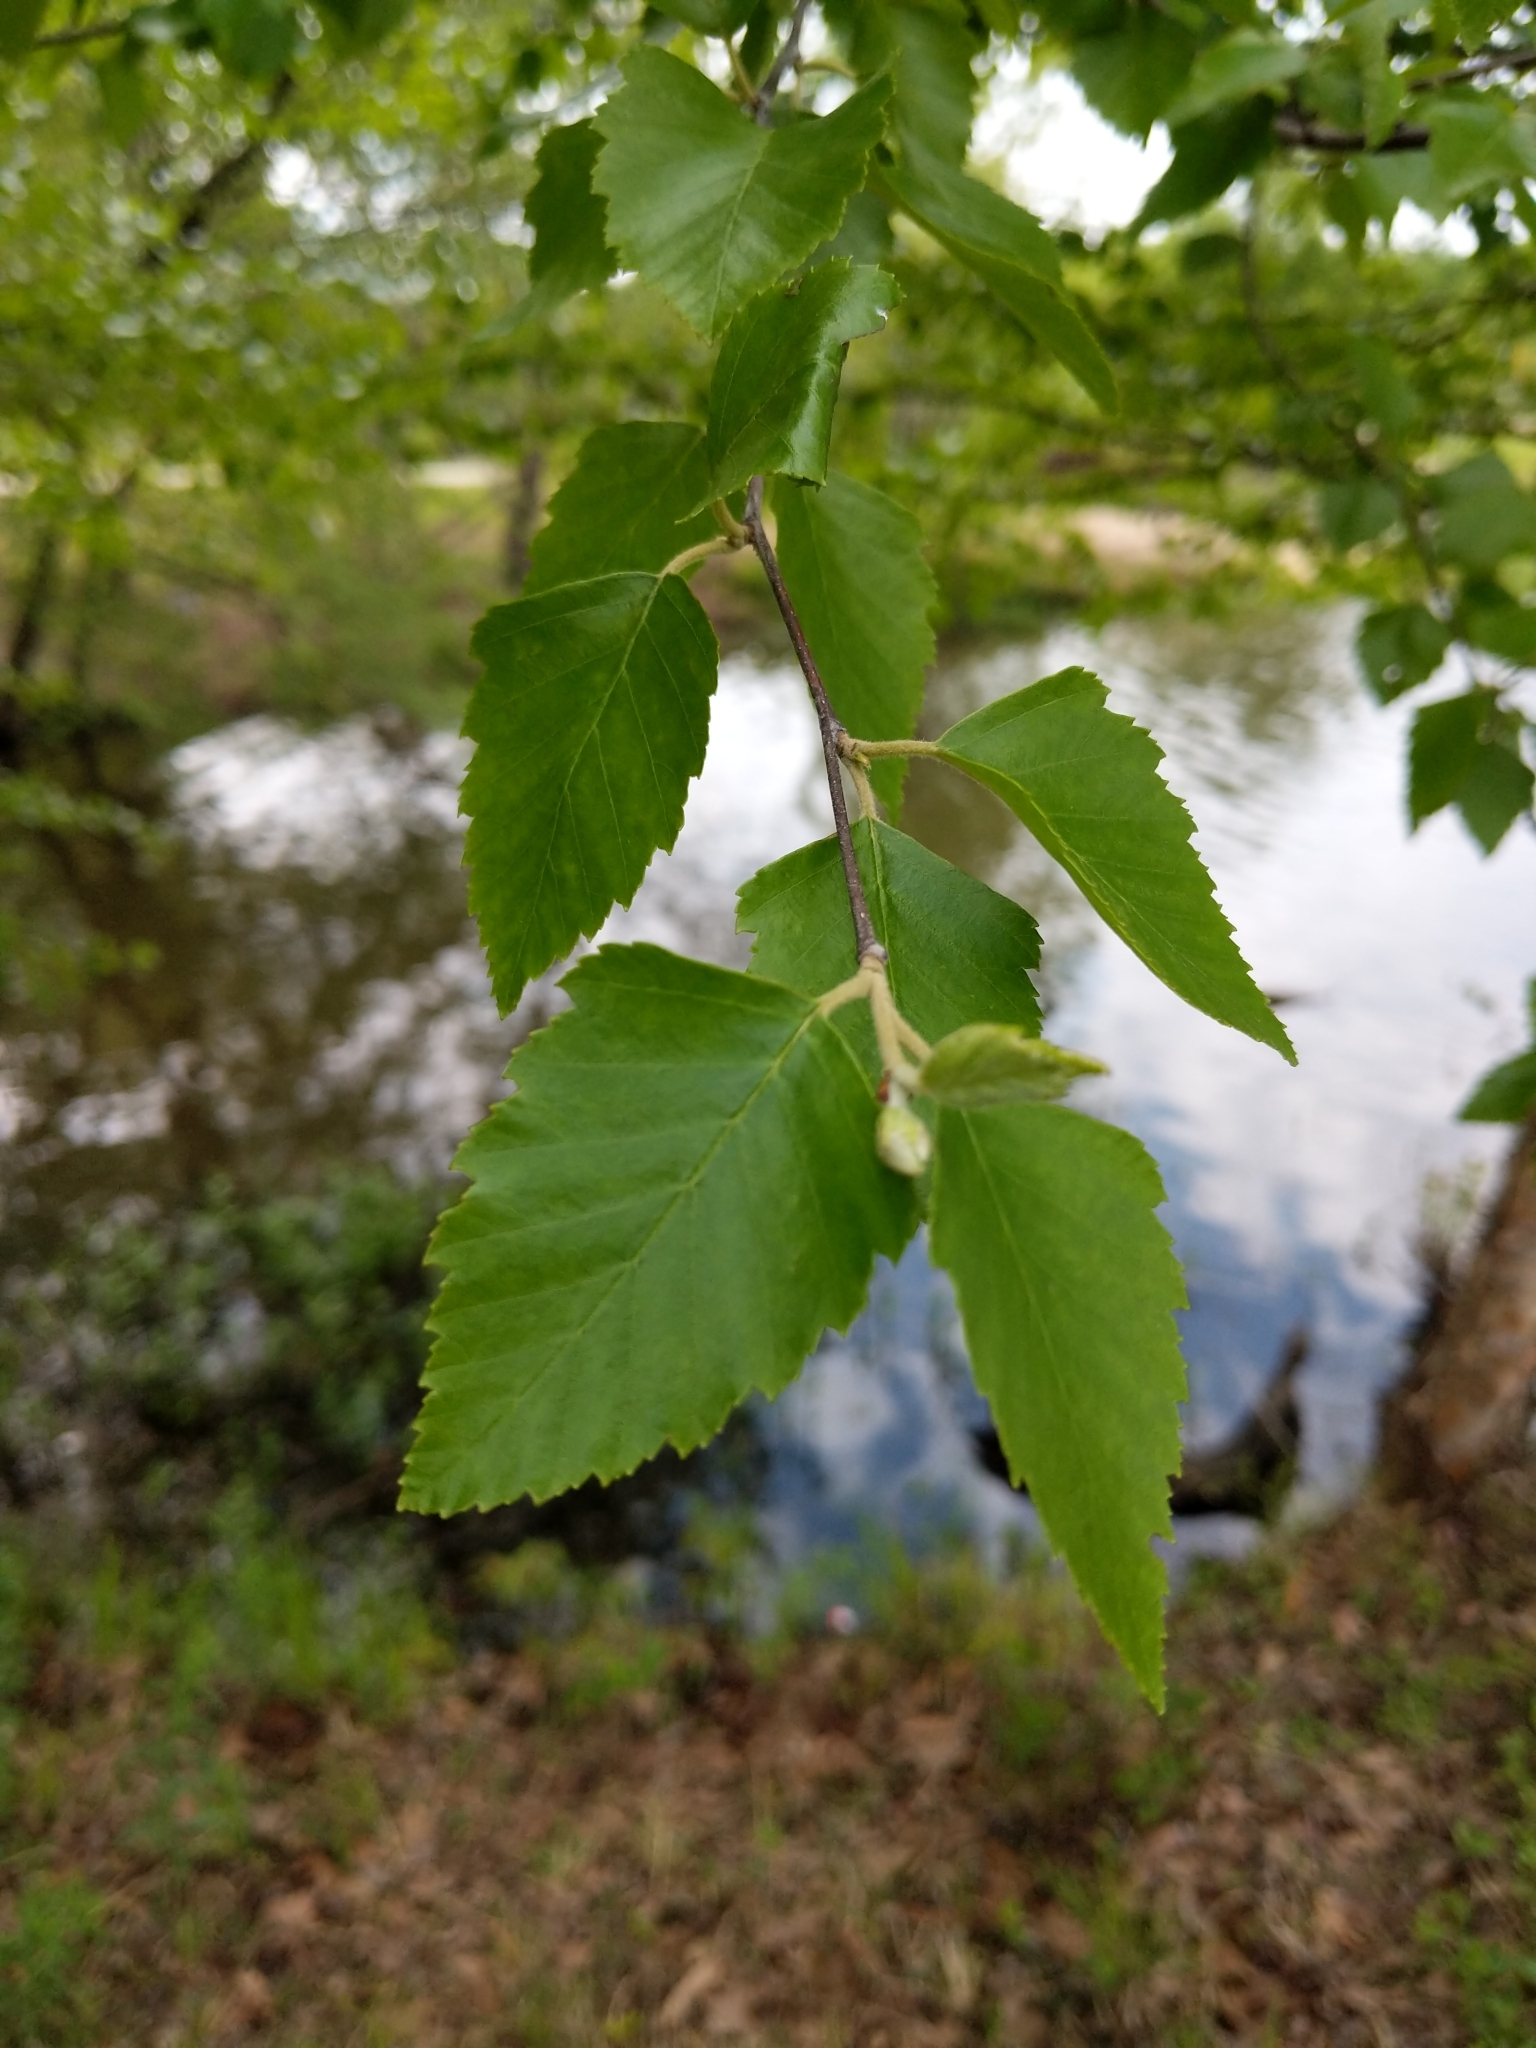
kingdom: Plantae
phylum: Tracheophyta
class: Magnoliopsida
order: Fagales
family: Betulaceae
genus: Betula
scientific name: Betula nigra
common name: Black birch
